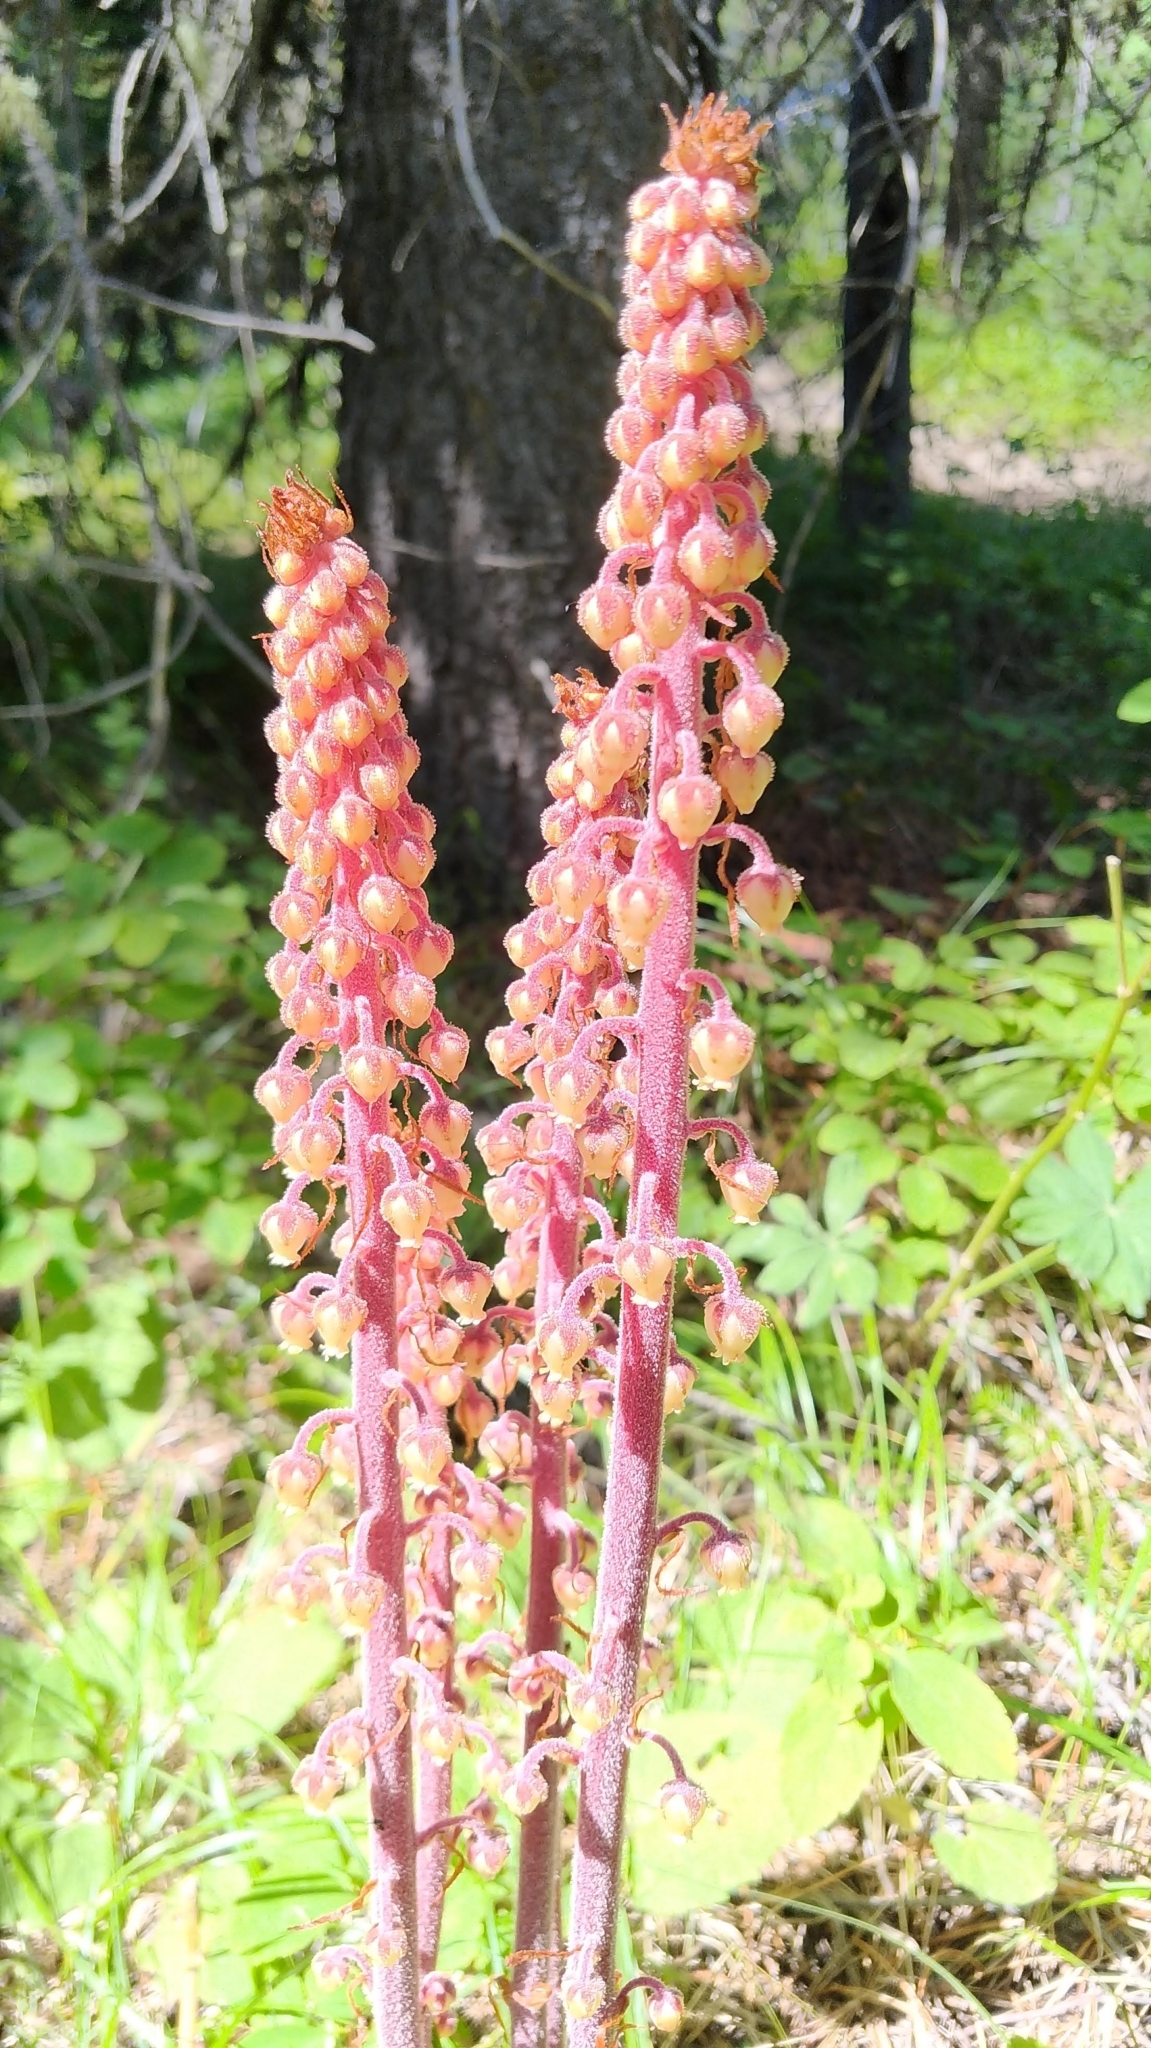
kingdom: Plantae
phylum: Tracheophyta
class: Magnoliopsida
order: Ericales
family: Ericaceae
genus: Pterospora
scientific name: Pterospora andromedea
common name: Giant bird's-nest
